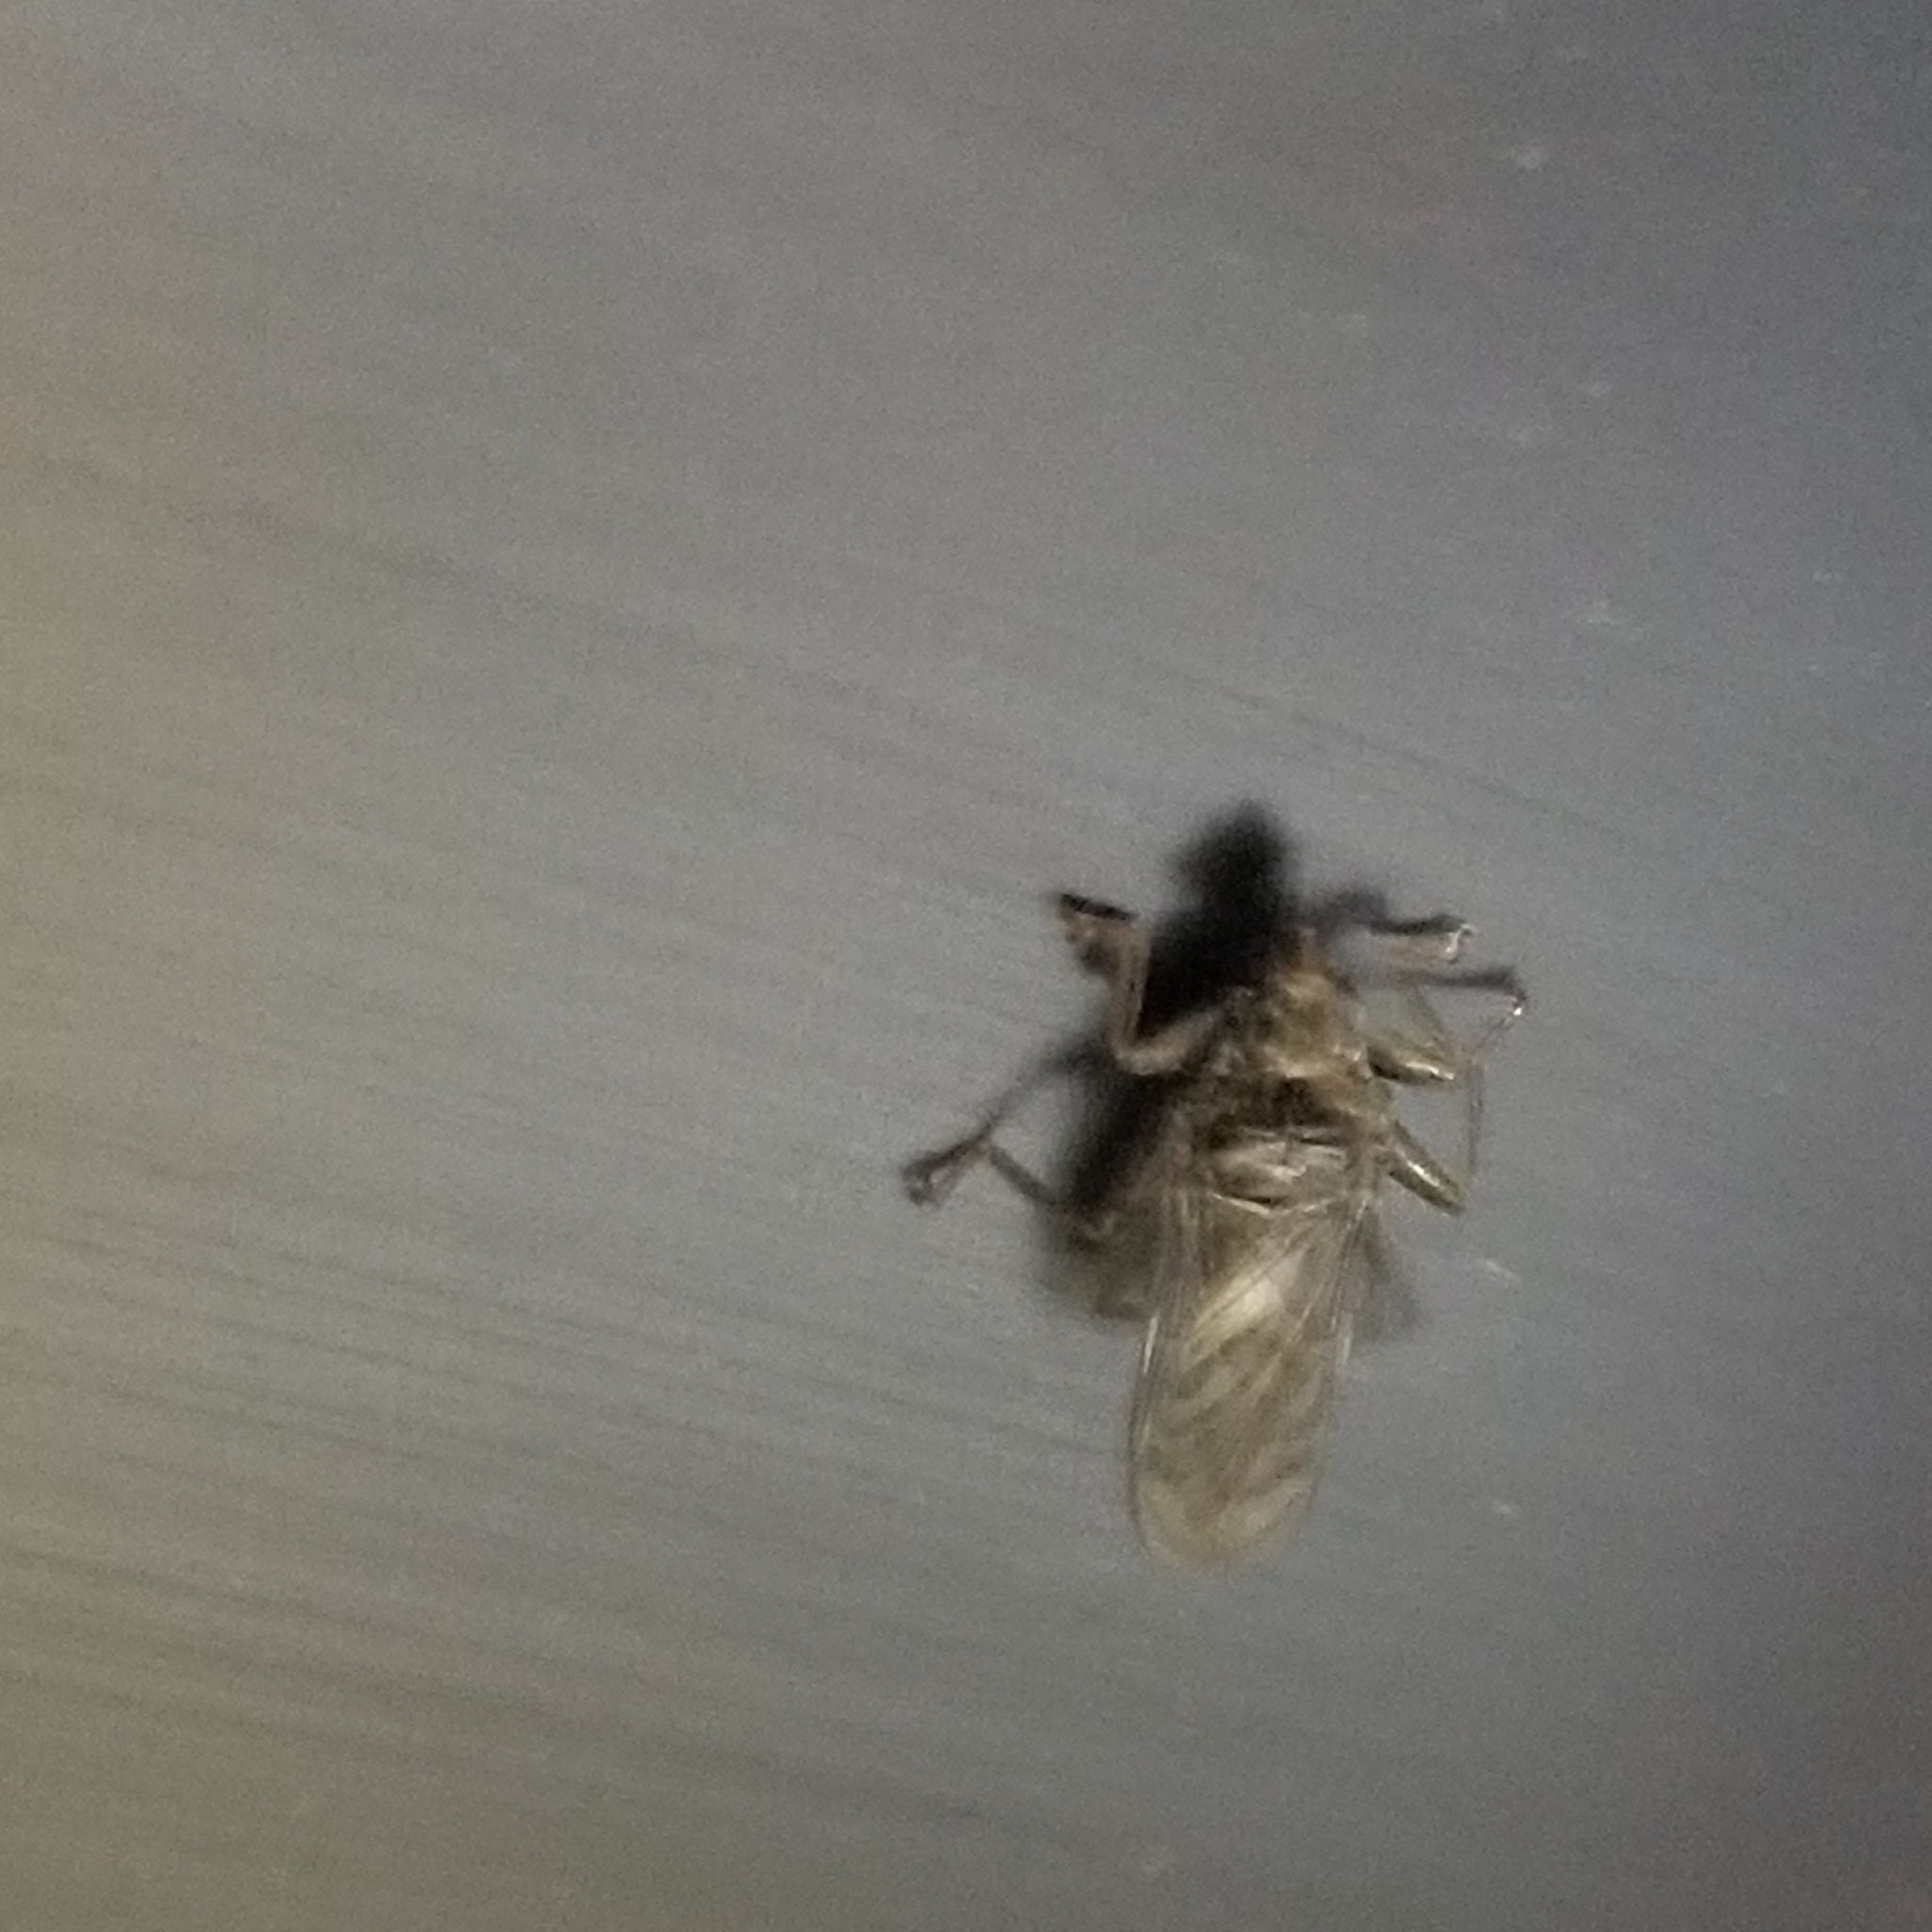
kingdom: Animalia
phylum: Arthropoda
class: Insecta
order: Diptera
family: Hippoboscidae
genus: Pseudolynchia
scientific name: Pseudolynchia canariensis
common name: Louse fly
